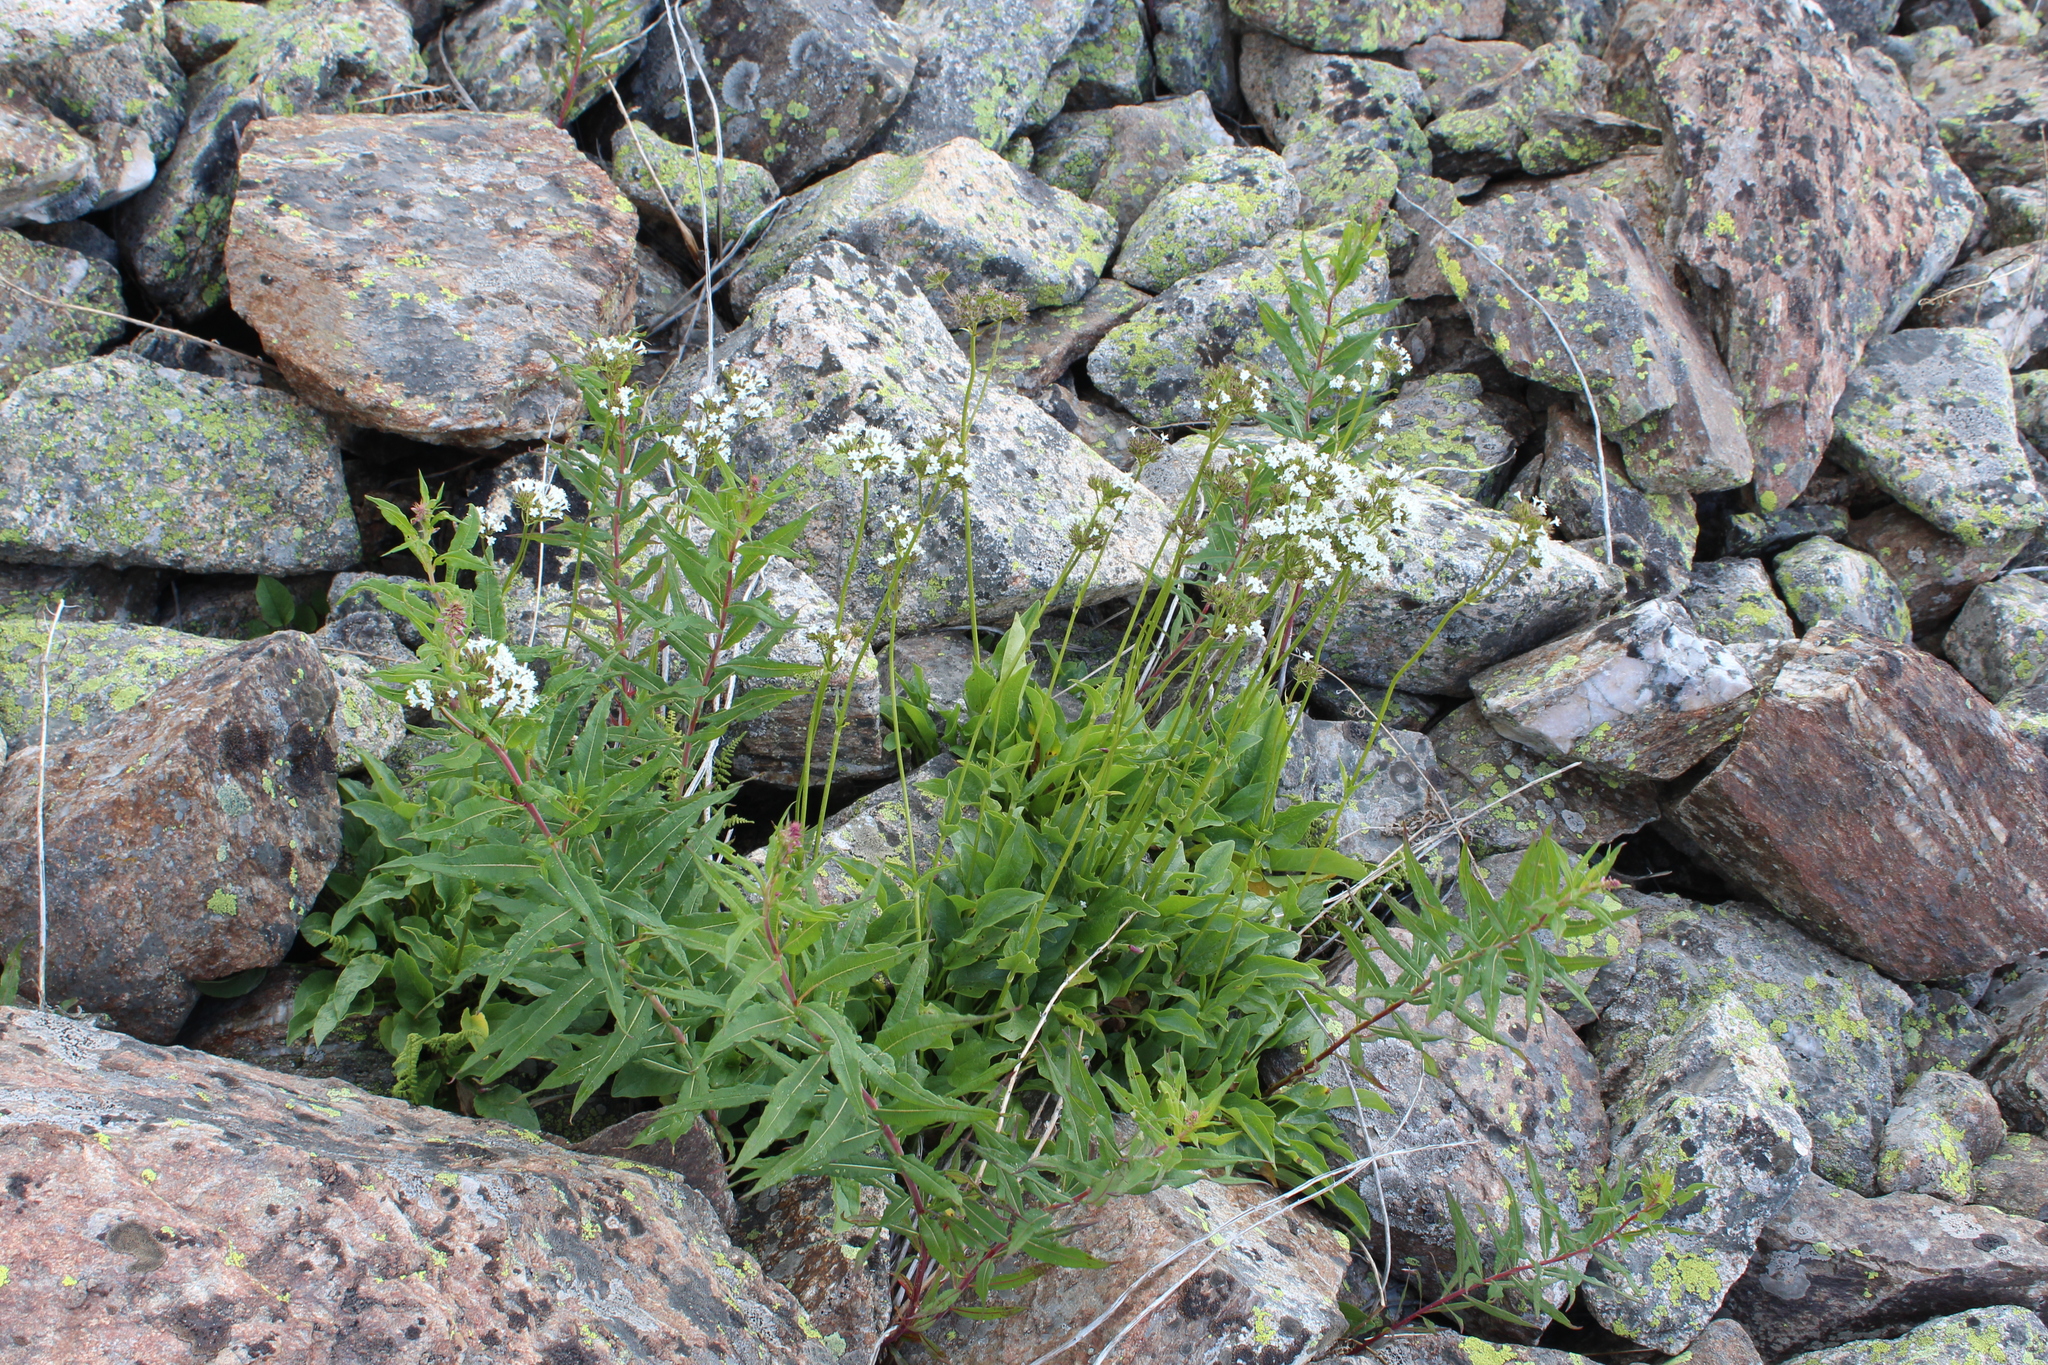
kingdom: Plantae
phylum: Tracheophyta
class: Magnoliopsida
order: Dipsacales
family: Caprifoliaceae
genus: Valeriana
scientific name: Valeriana alpestris
